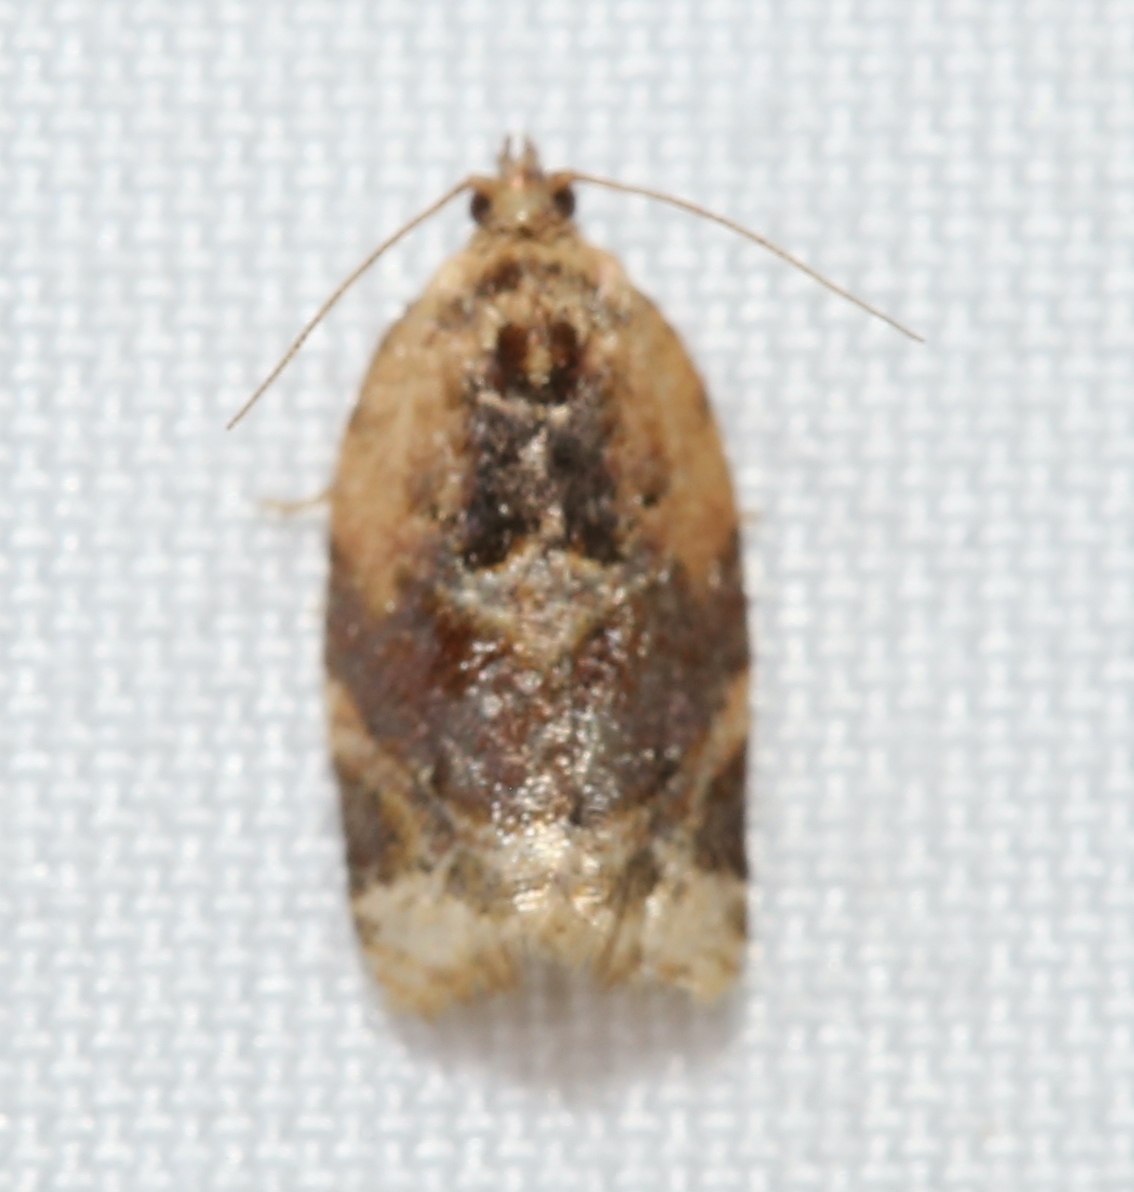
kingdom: Animalia
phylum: Arthropoda
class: Insecta
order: Lepidoptera
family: Tortricidae
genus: Argyrotaenia
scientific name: Argyrotaenia velutinana
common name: Red-banded leafroller moth
